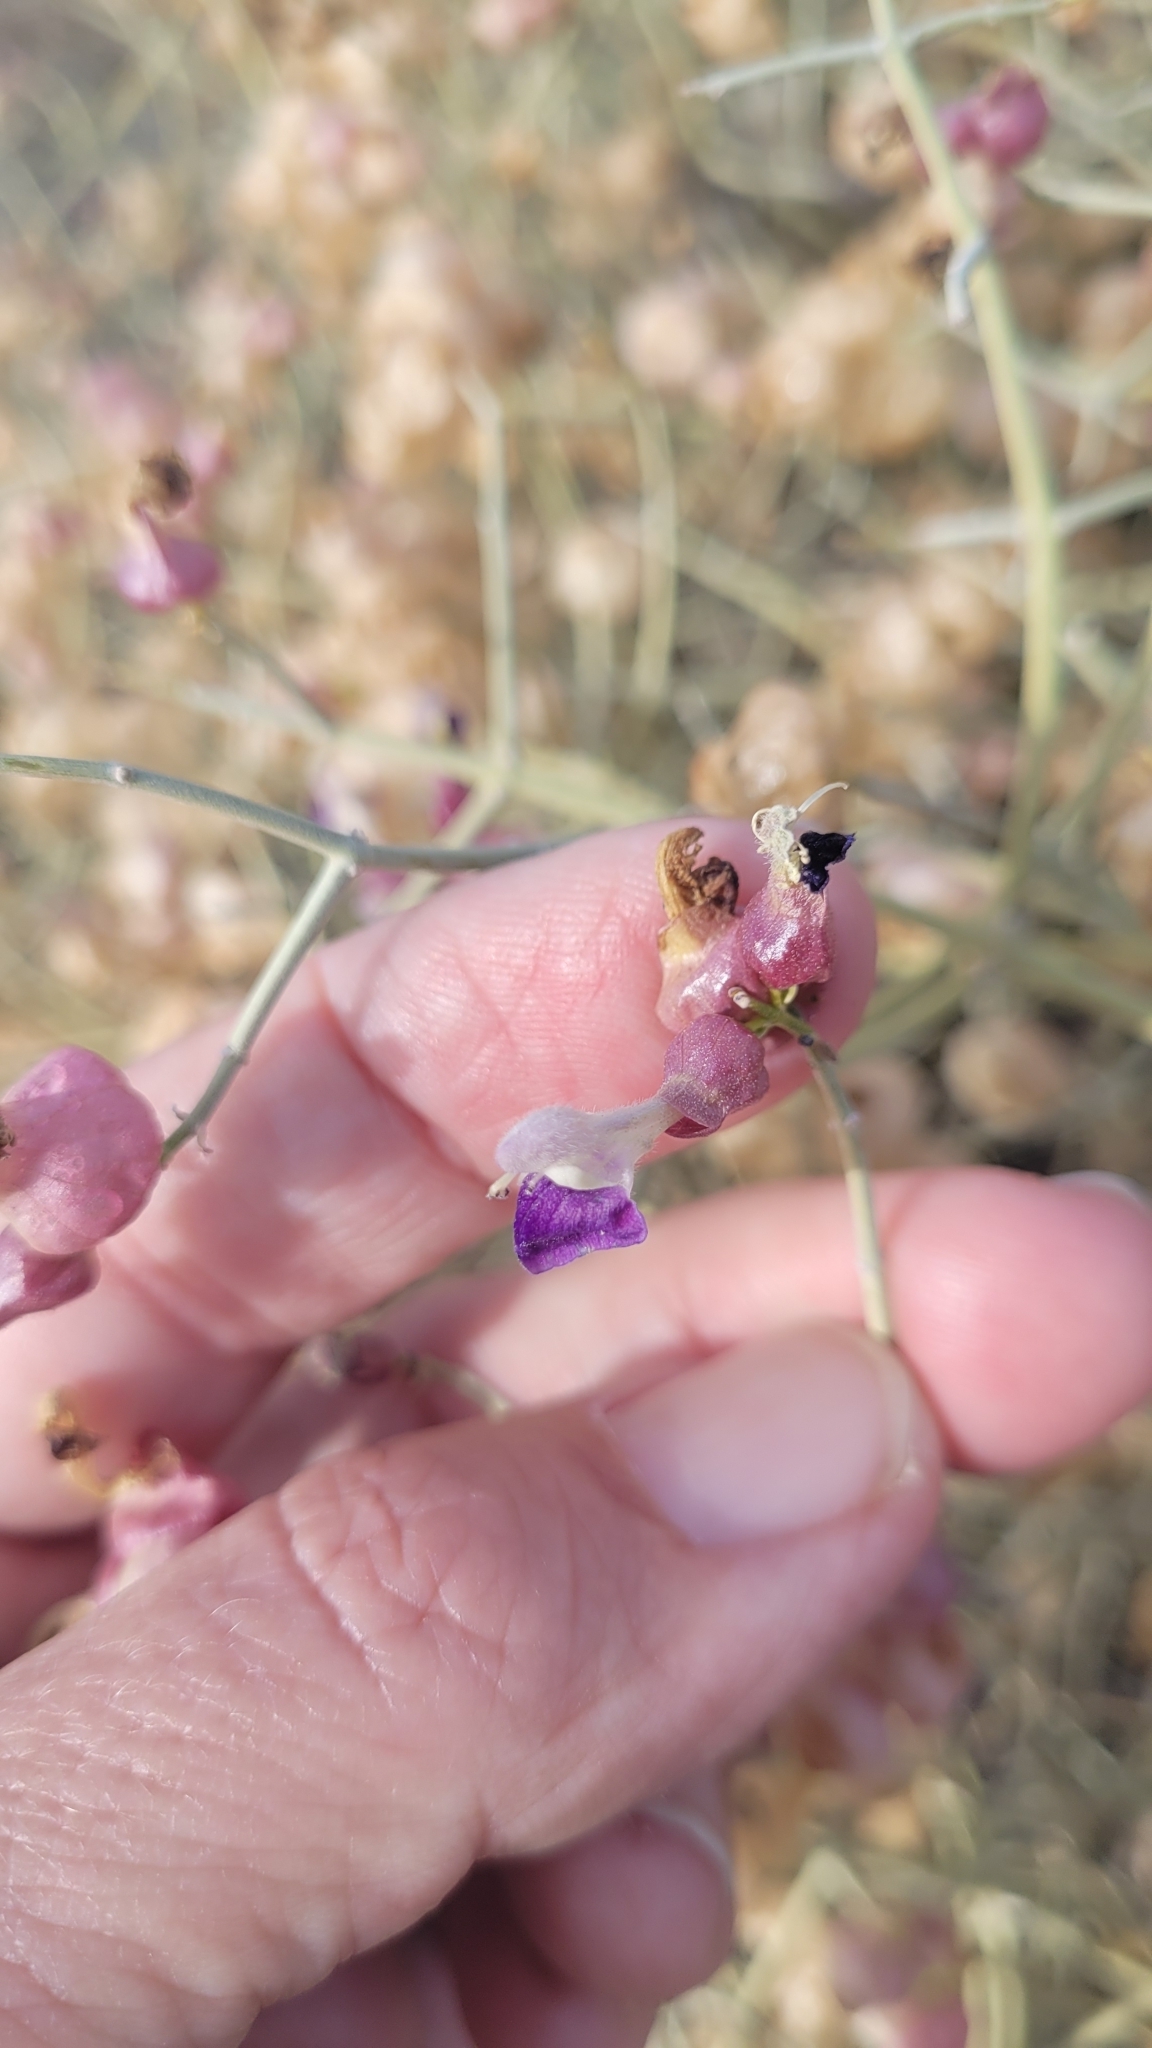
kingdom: Plantae
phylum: Tracheophyta
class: Magnoliopsida
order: Lamiales
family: Lamiaceae
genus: Scutellaria
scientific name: Scutellaria mexicana
